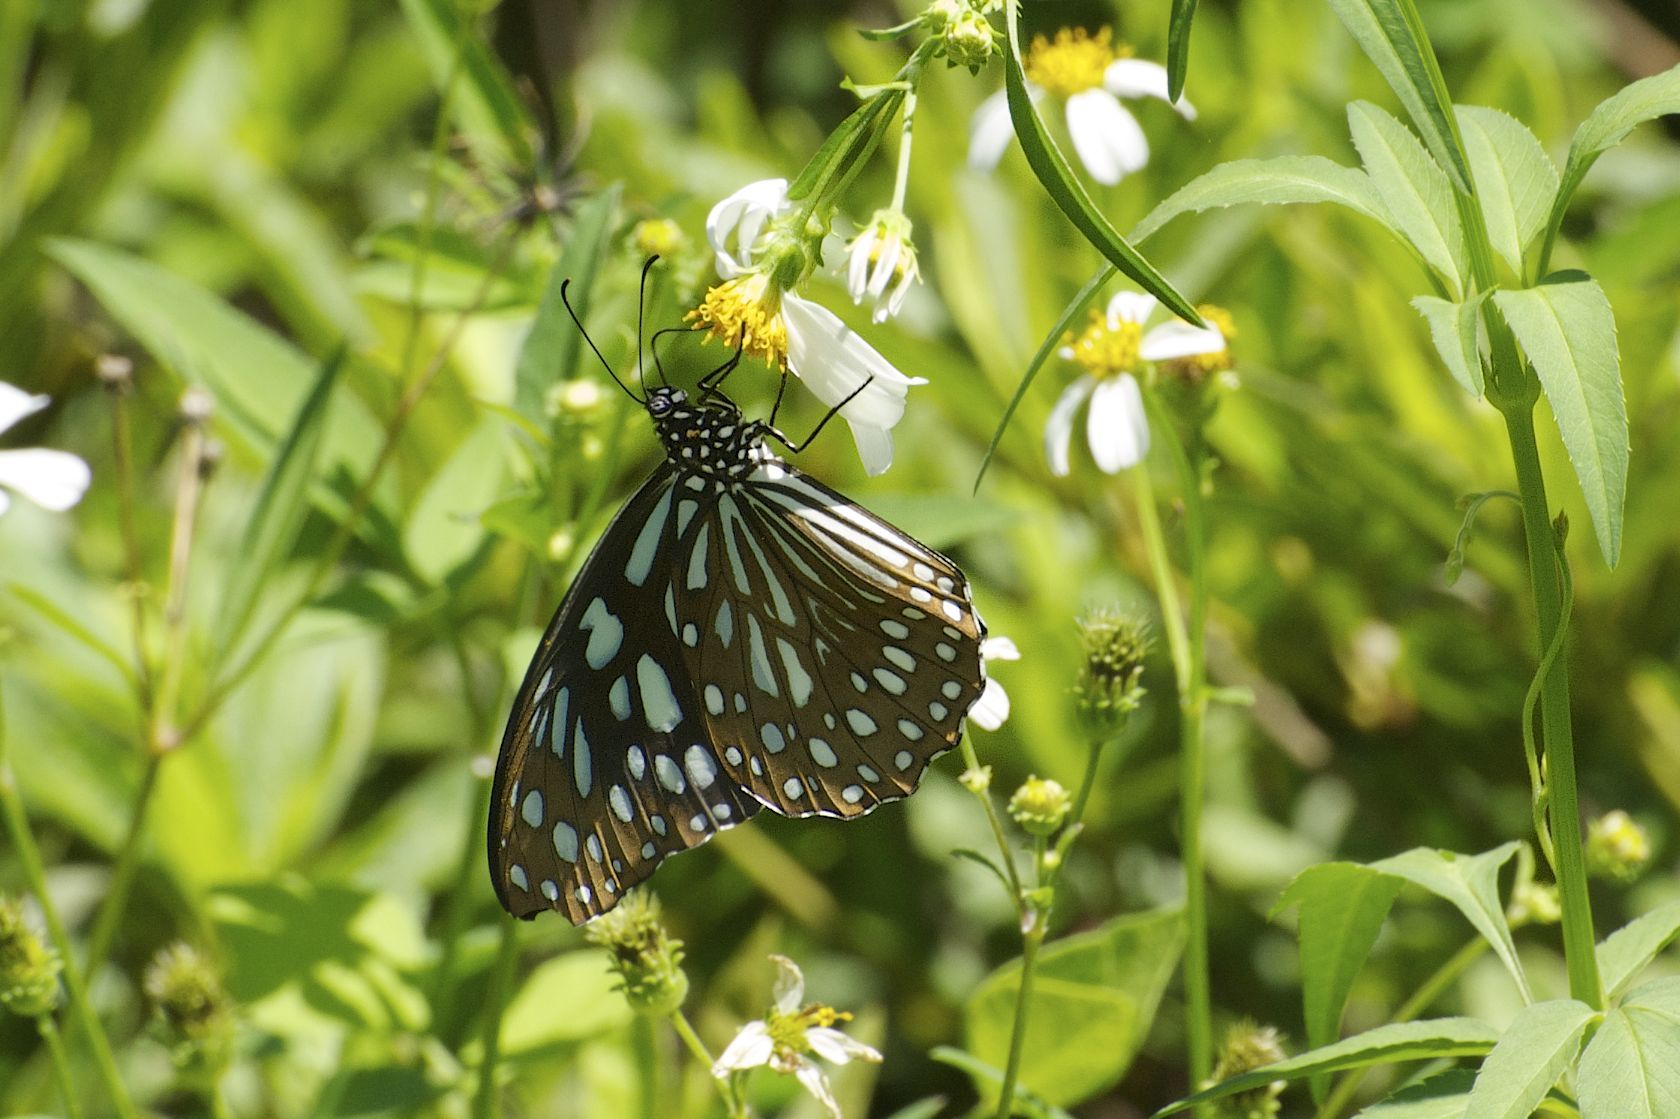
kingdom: Animalia
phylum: Arthropoda
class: Insecta
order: Lepidoptera
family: Nymphalidae
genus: Tirumala
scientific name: Tirumala limniace
